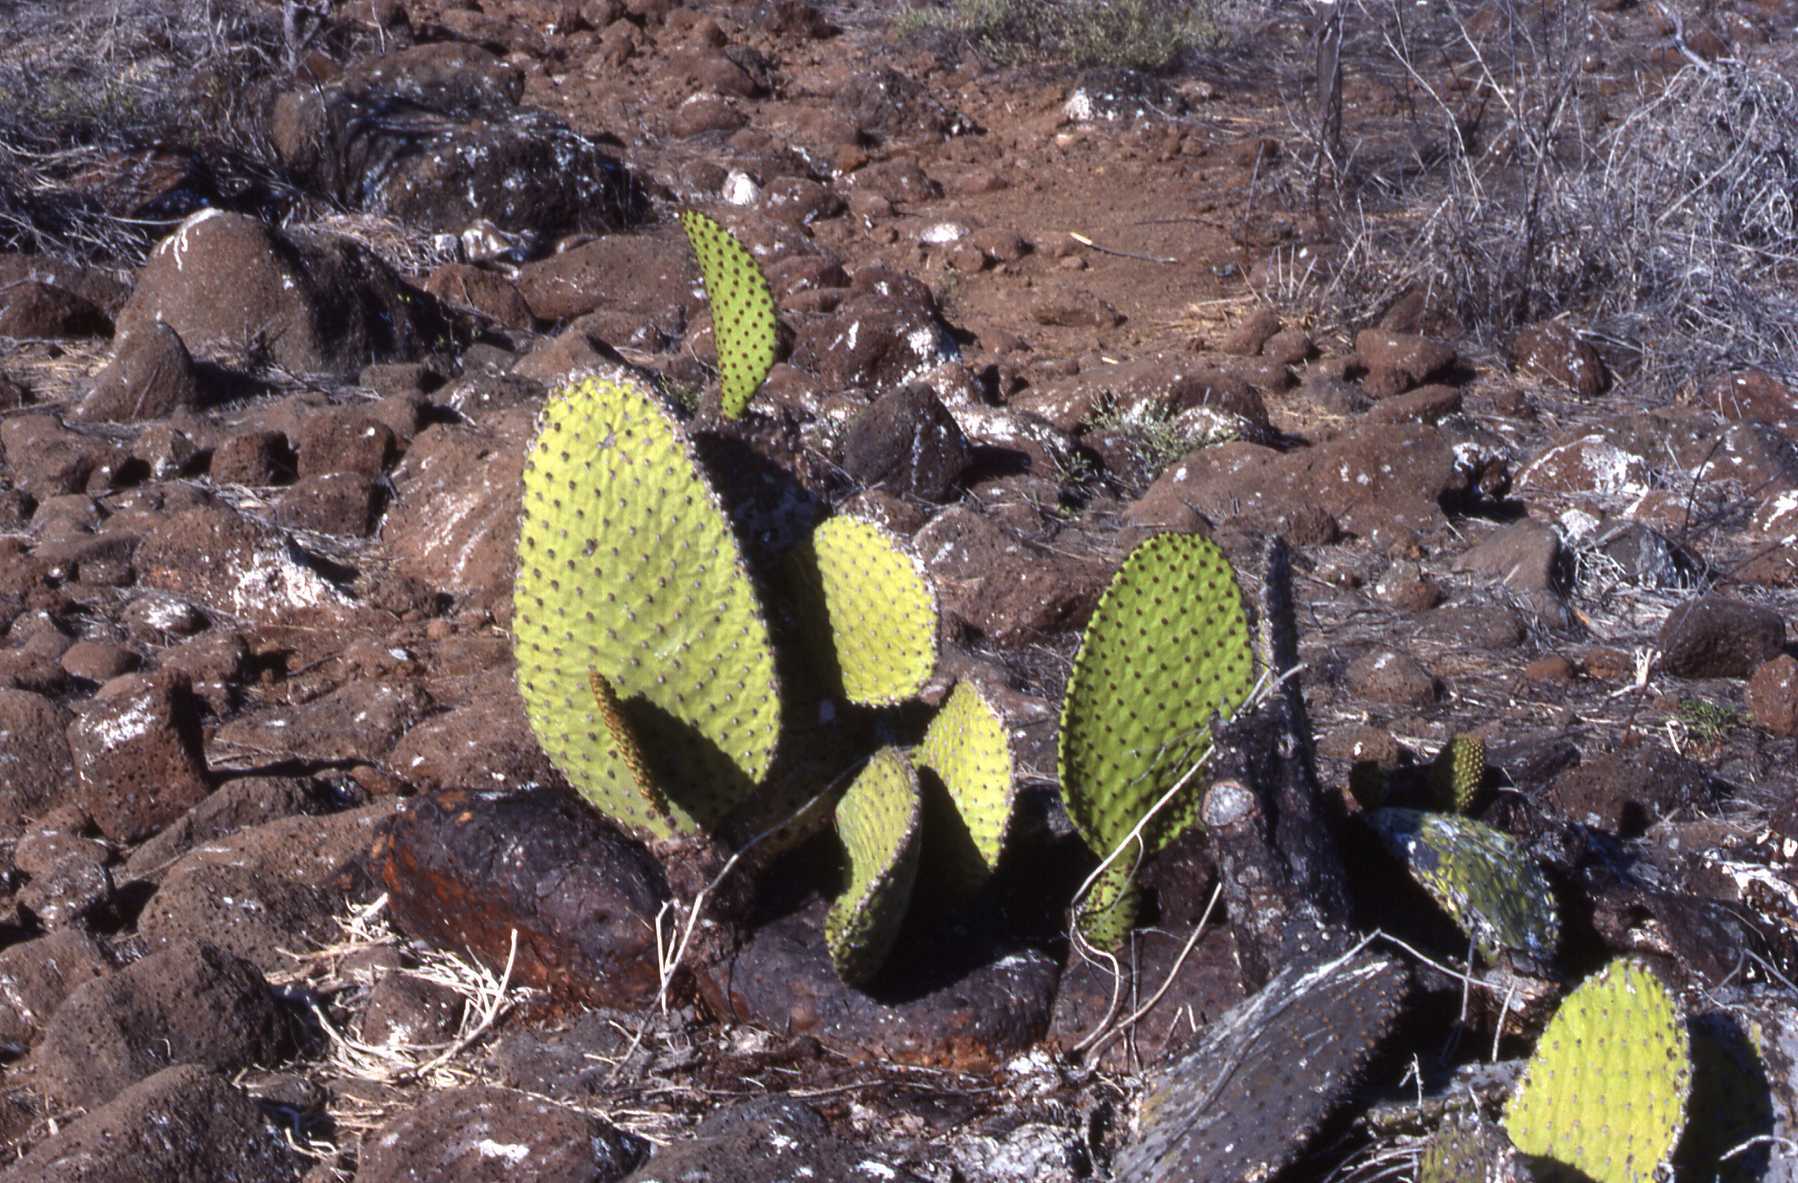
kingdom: Plantae
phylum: Tracheophyta
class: Magnoliopsida
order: Caryophyllales
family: Cactaceae
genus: Opuntia
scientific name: Opuntia galapageia
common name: Galápagos prickly pear
